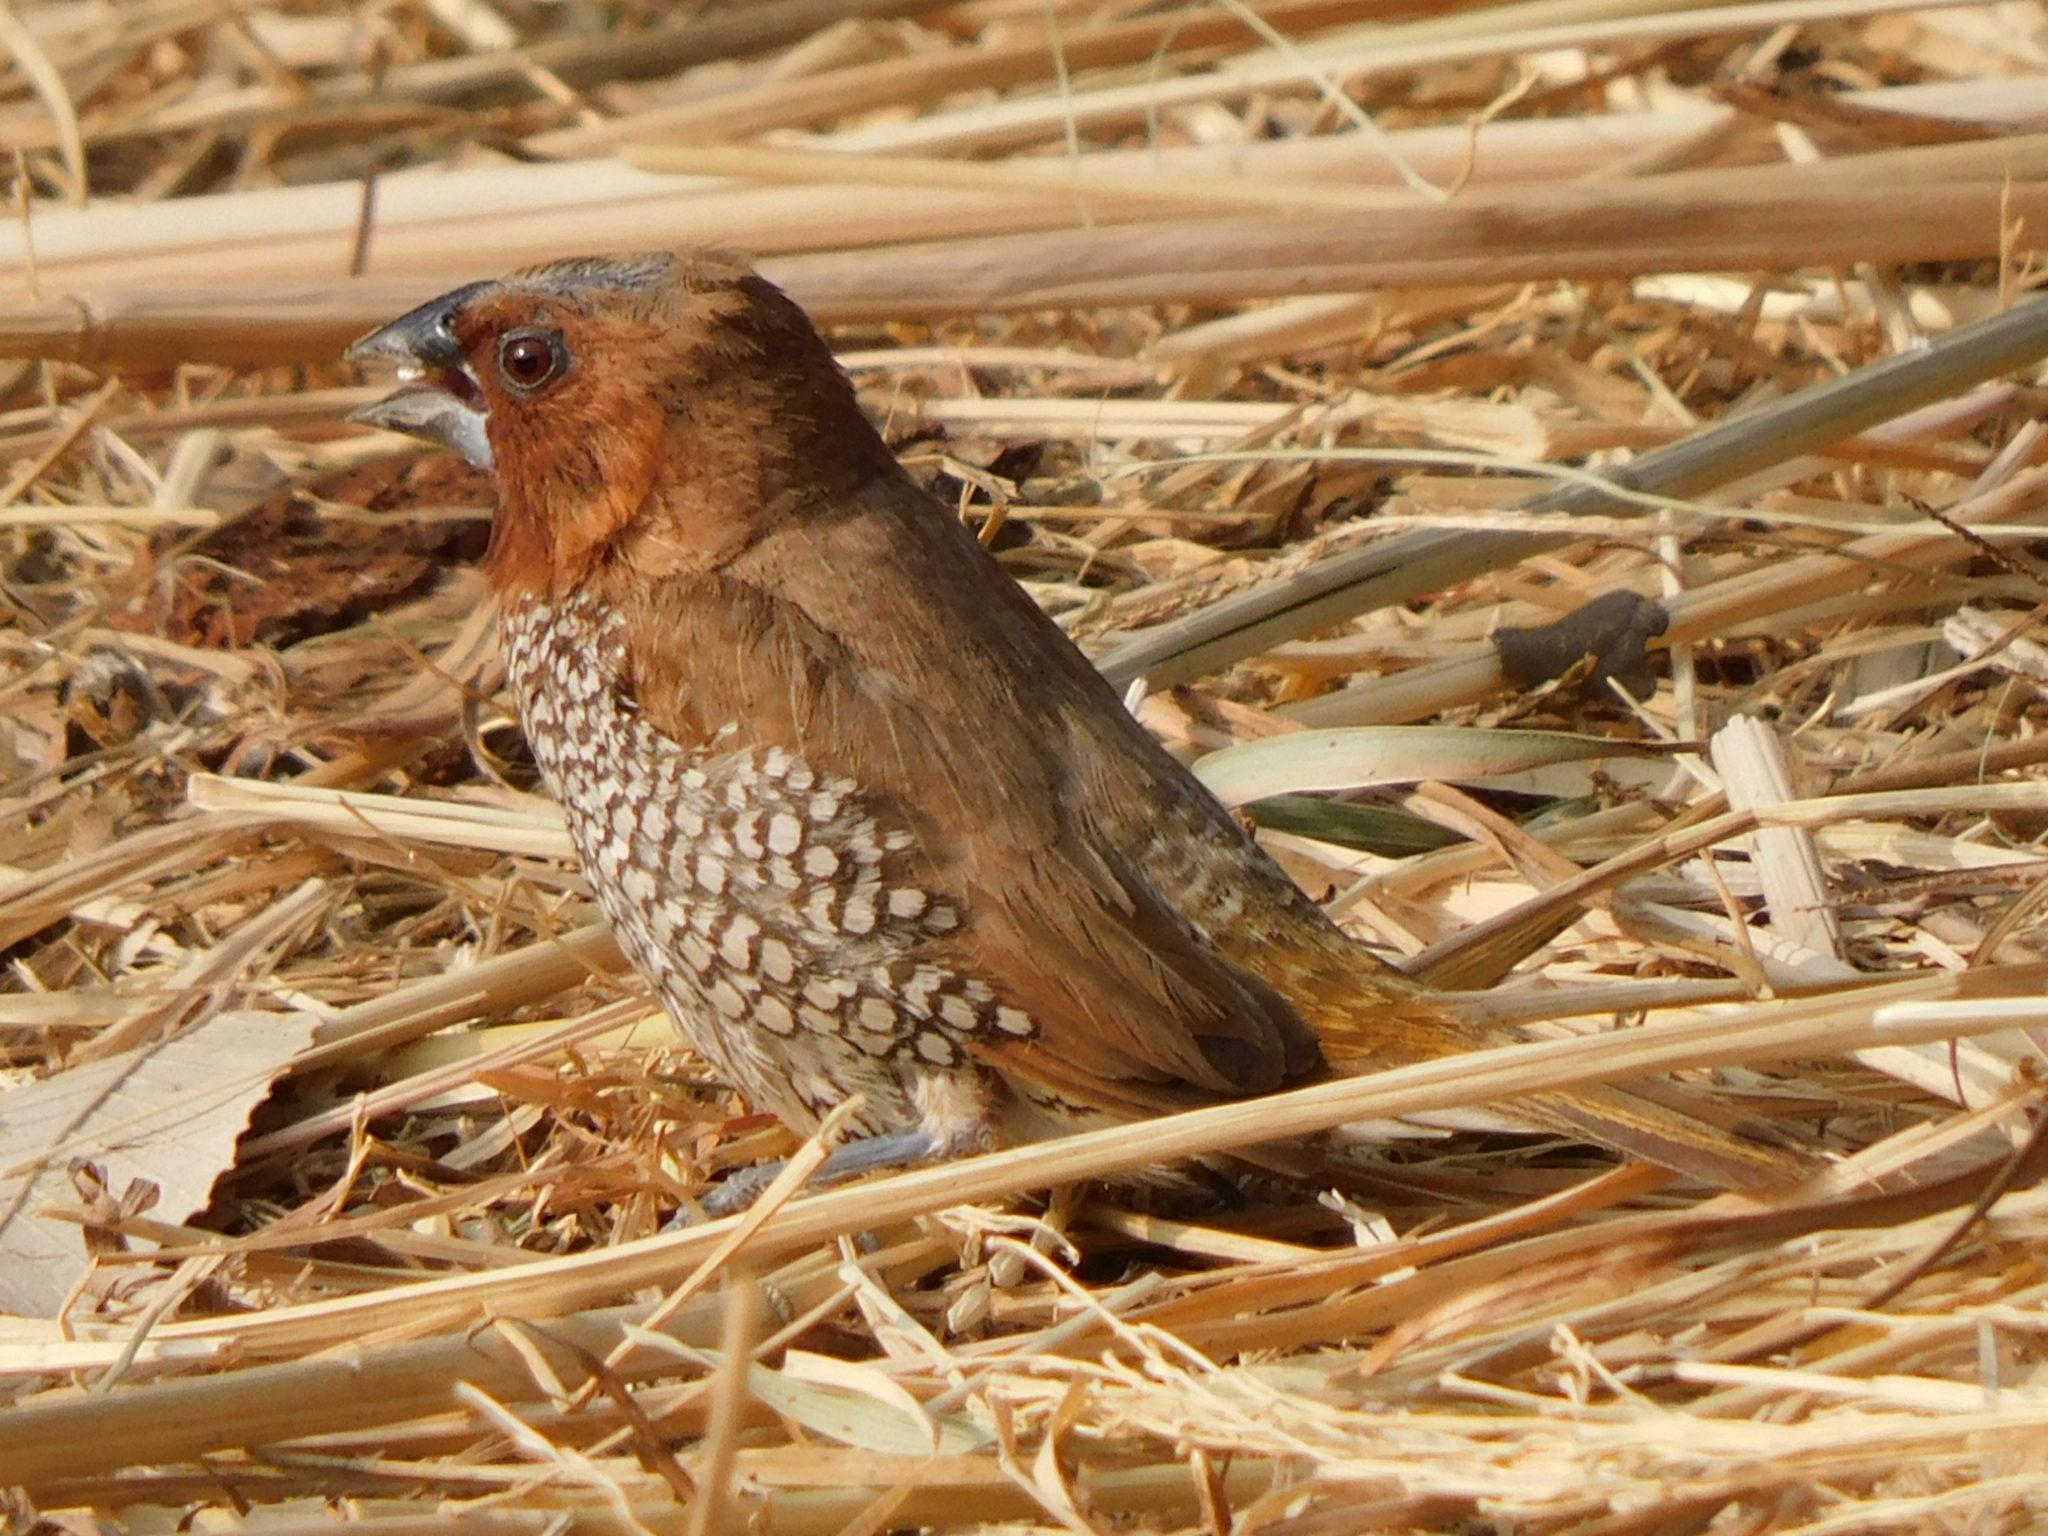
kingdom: Animalia
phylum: Chordata
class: Aves
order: Passeriformes
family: Estrildidae
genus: Lonchura
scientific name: Lonchura punctulata
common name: Scaly-breasted munia
